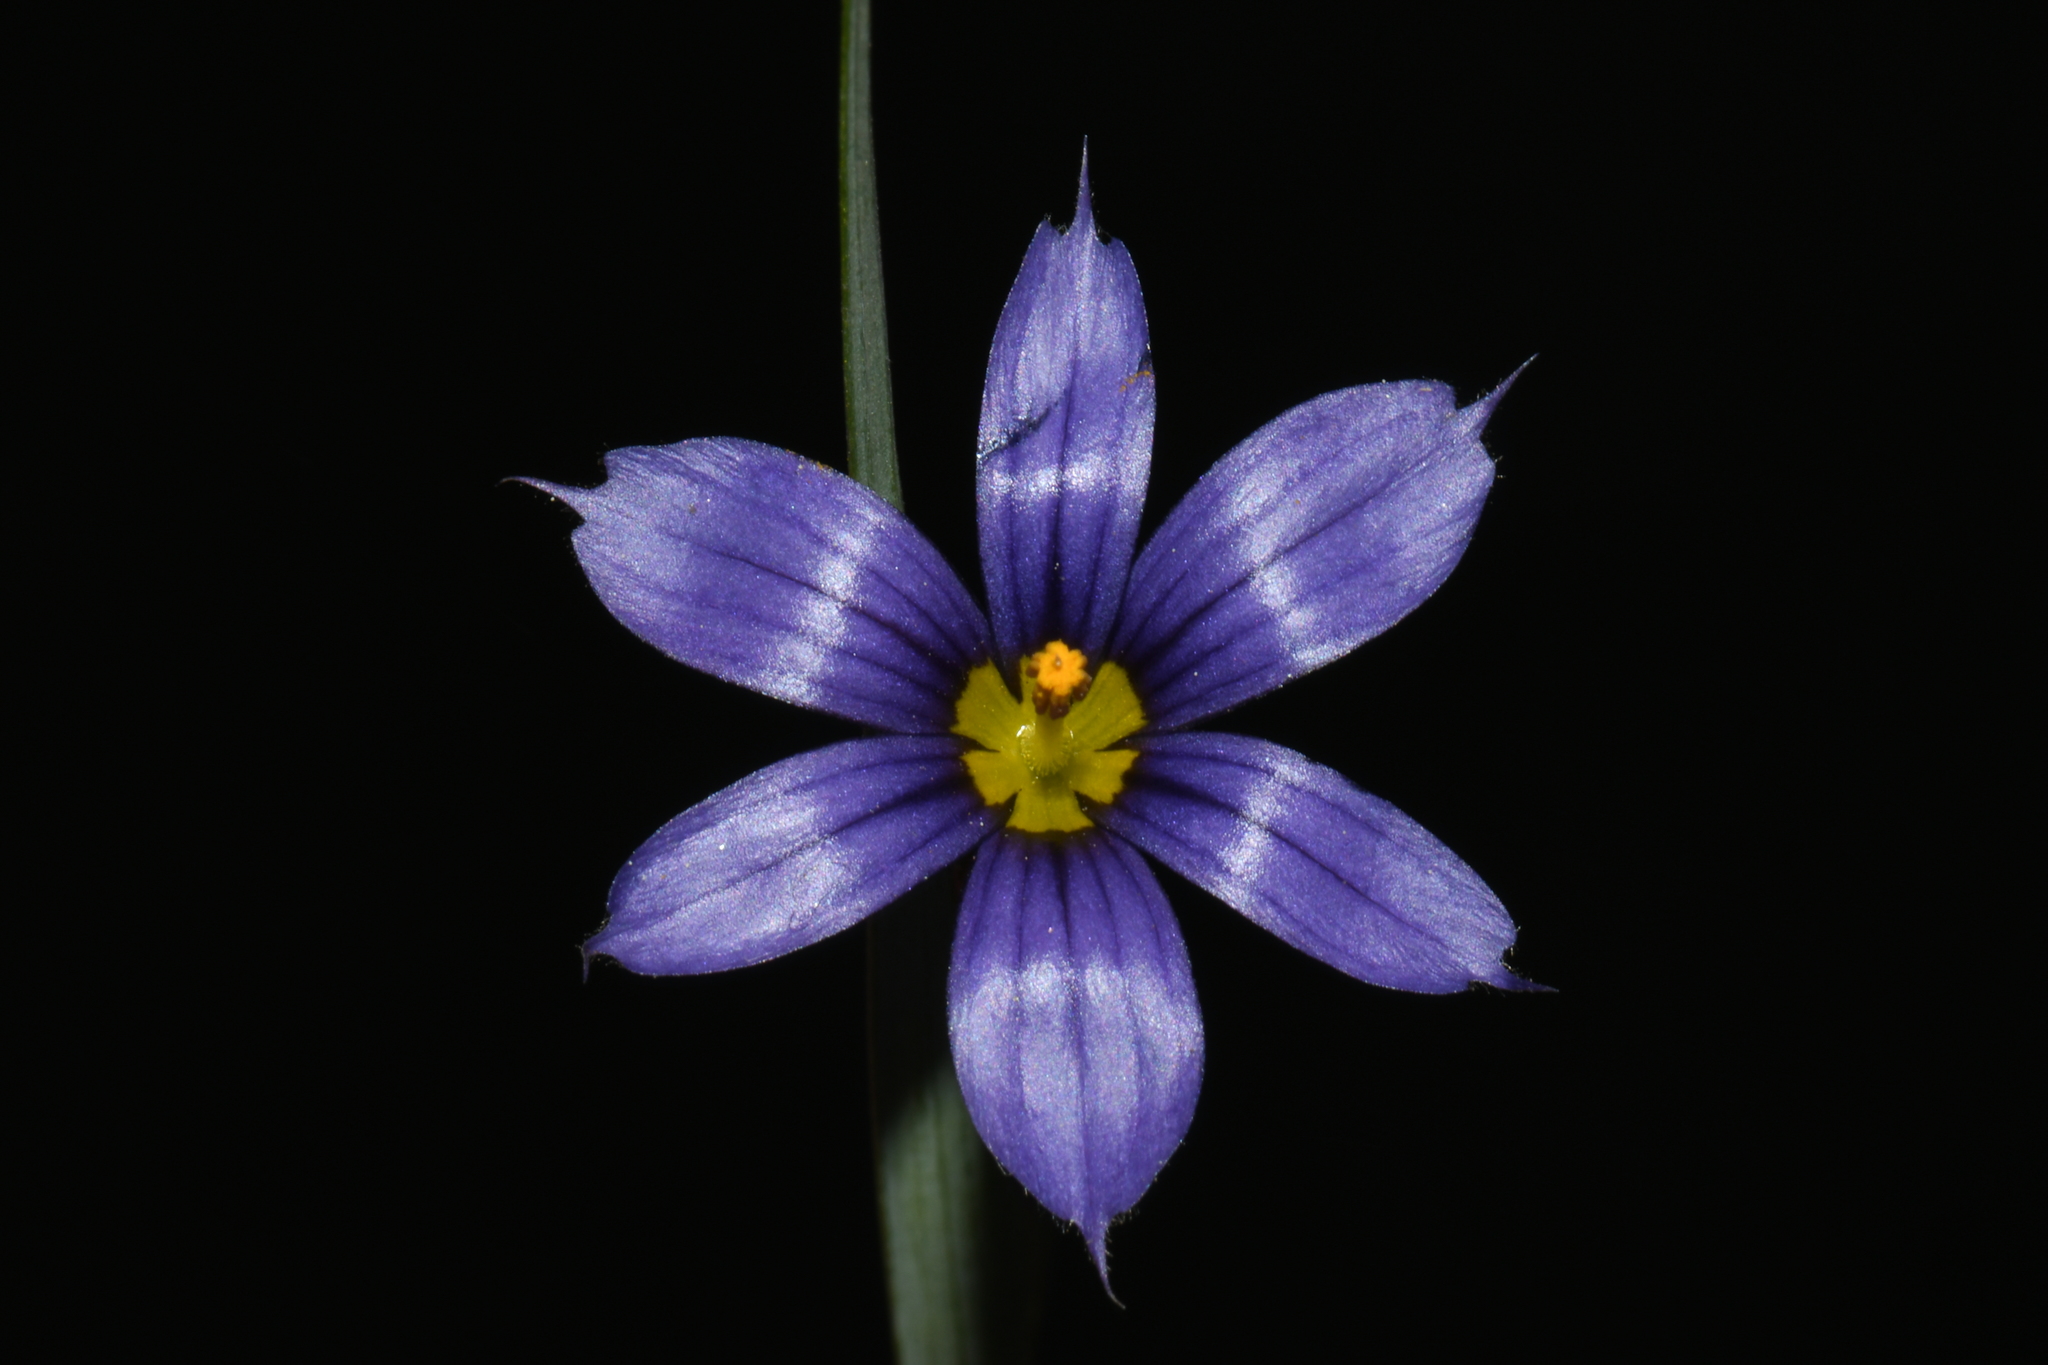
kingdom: Plantae
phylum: Tracheophyta
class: Liliopsida
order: Asparagales
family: Iridaceae
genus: Sisyrinchium
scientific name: Sisyrinchium montanum
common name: American blue-eyed-grass
